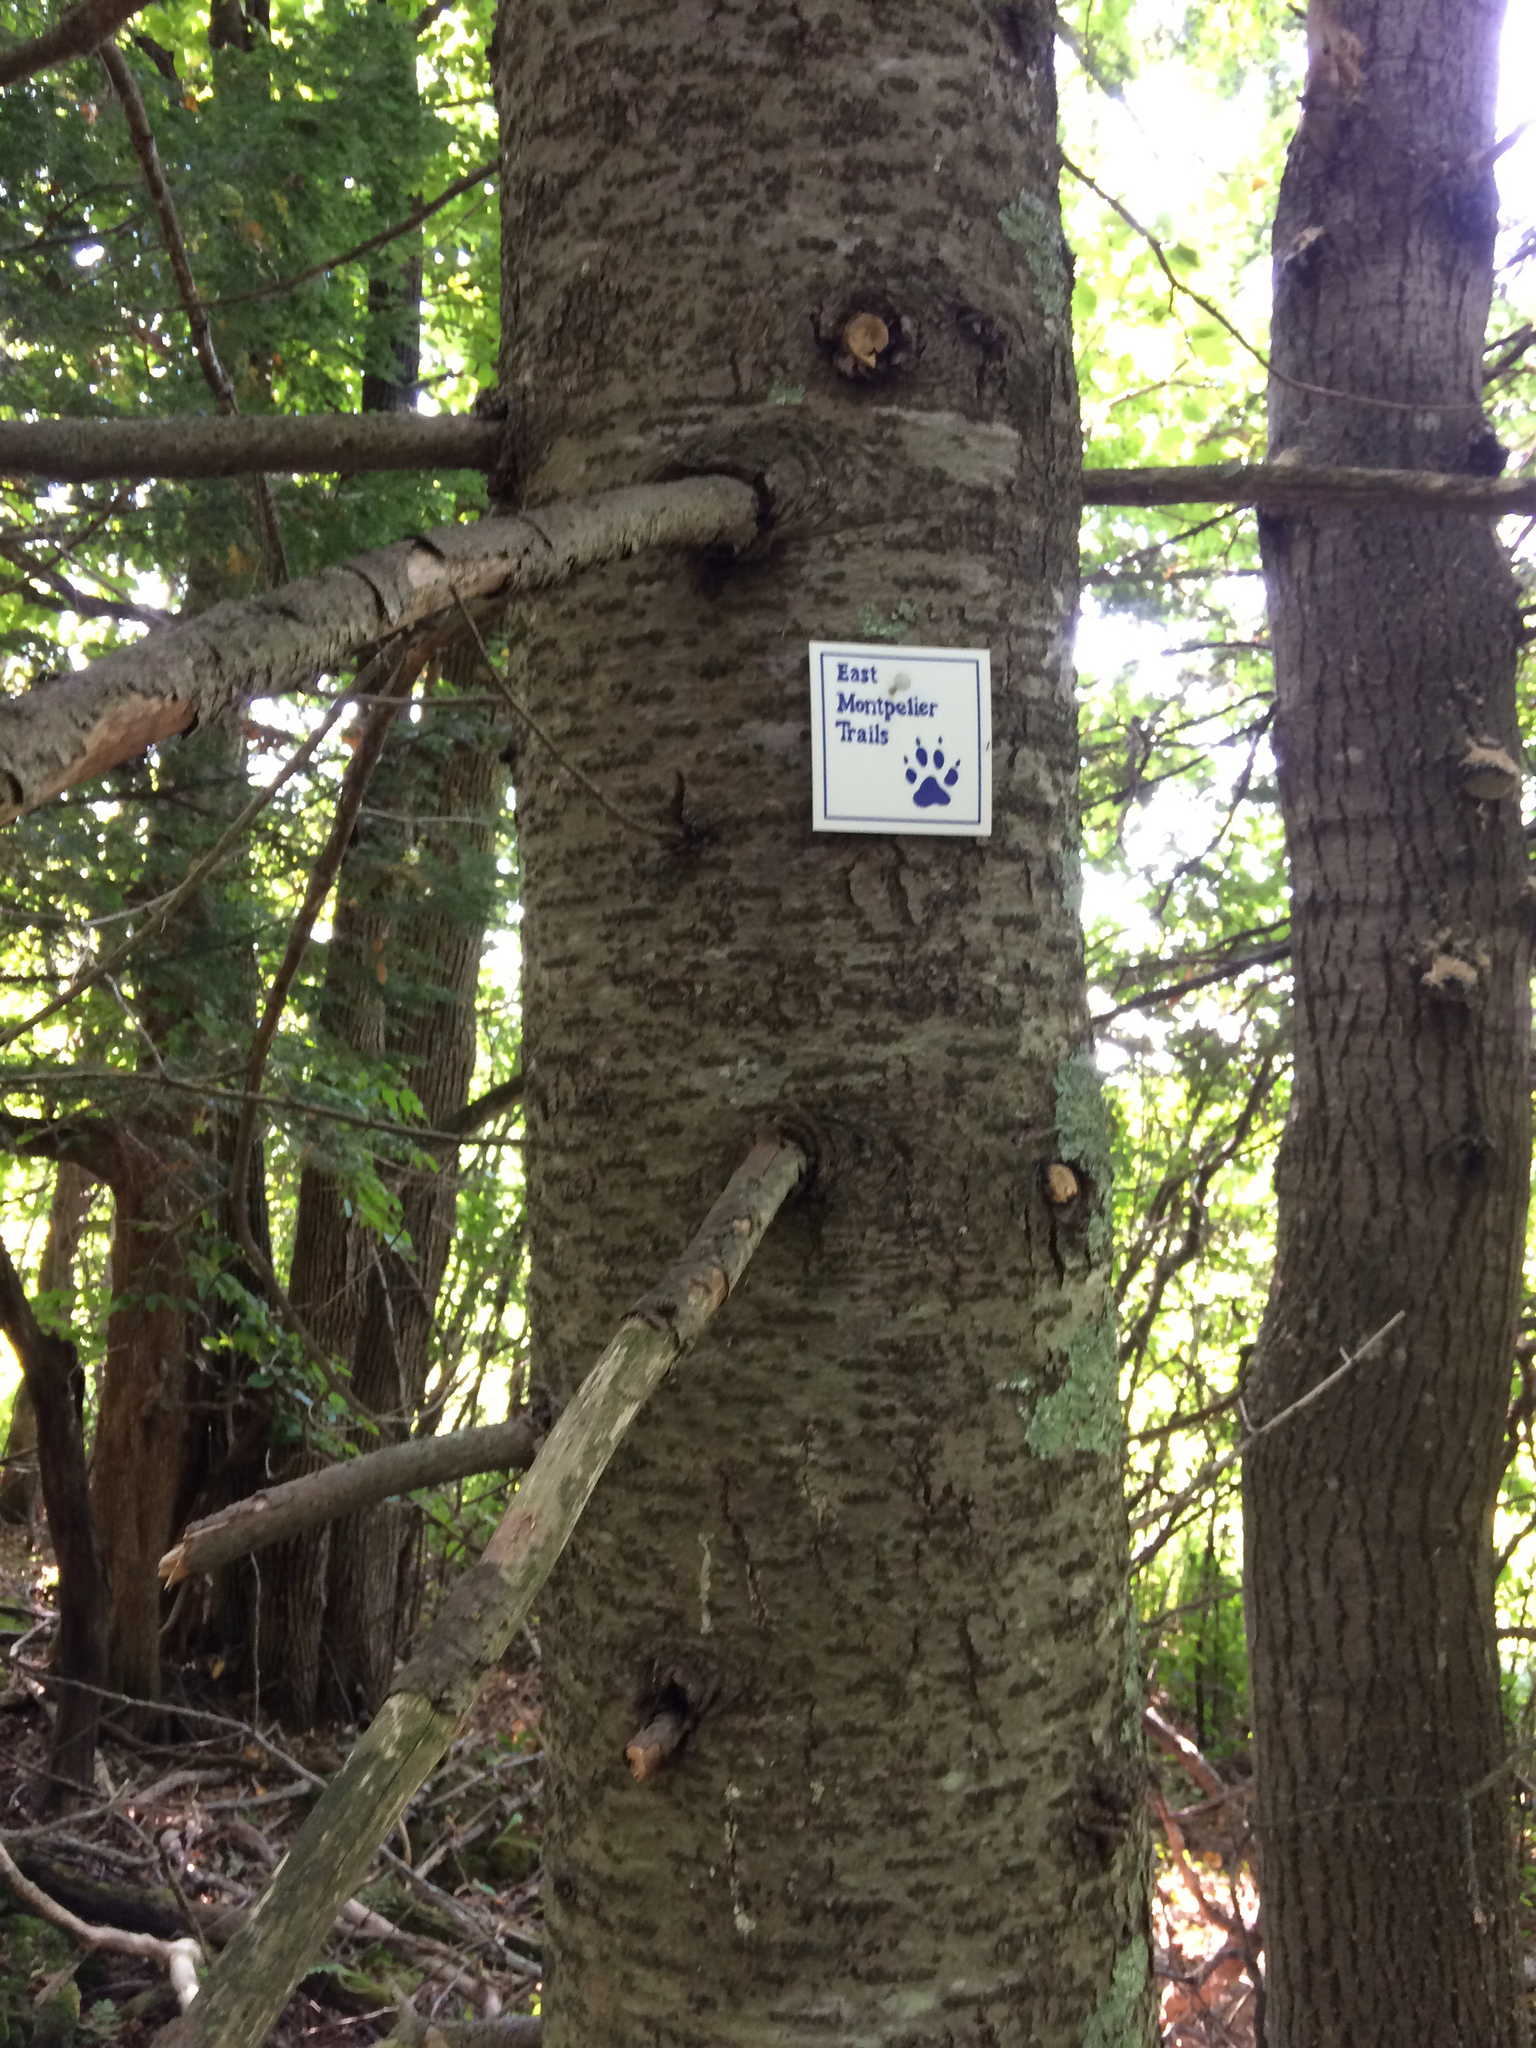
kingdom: Plantae
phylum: Tracheophyta
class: Pinopsida
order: Pinales
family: Pinaceae
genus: Abies
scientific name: Abies balsamea
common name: Balsam fir
